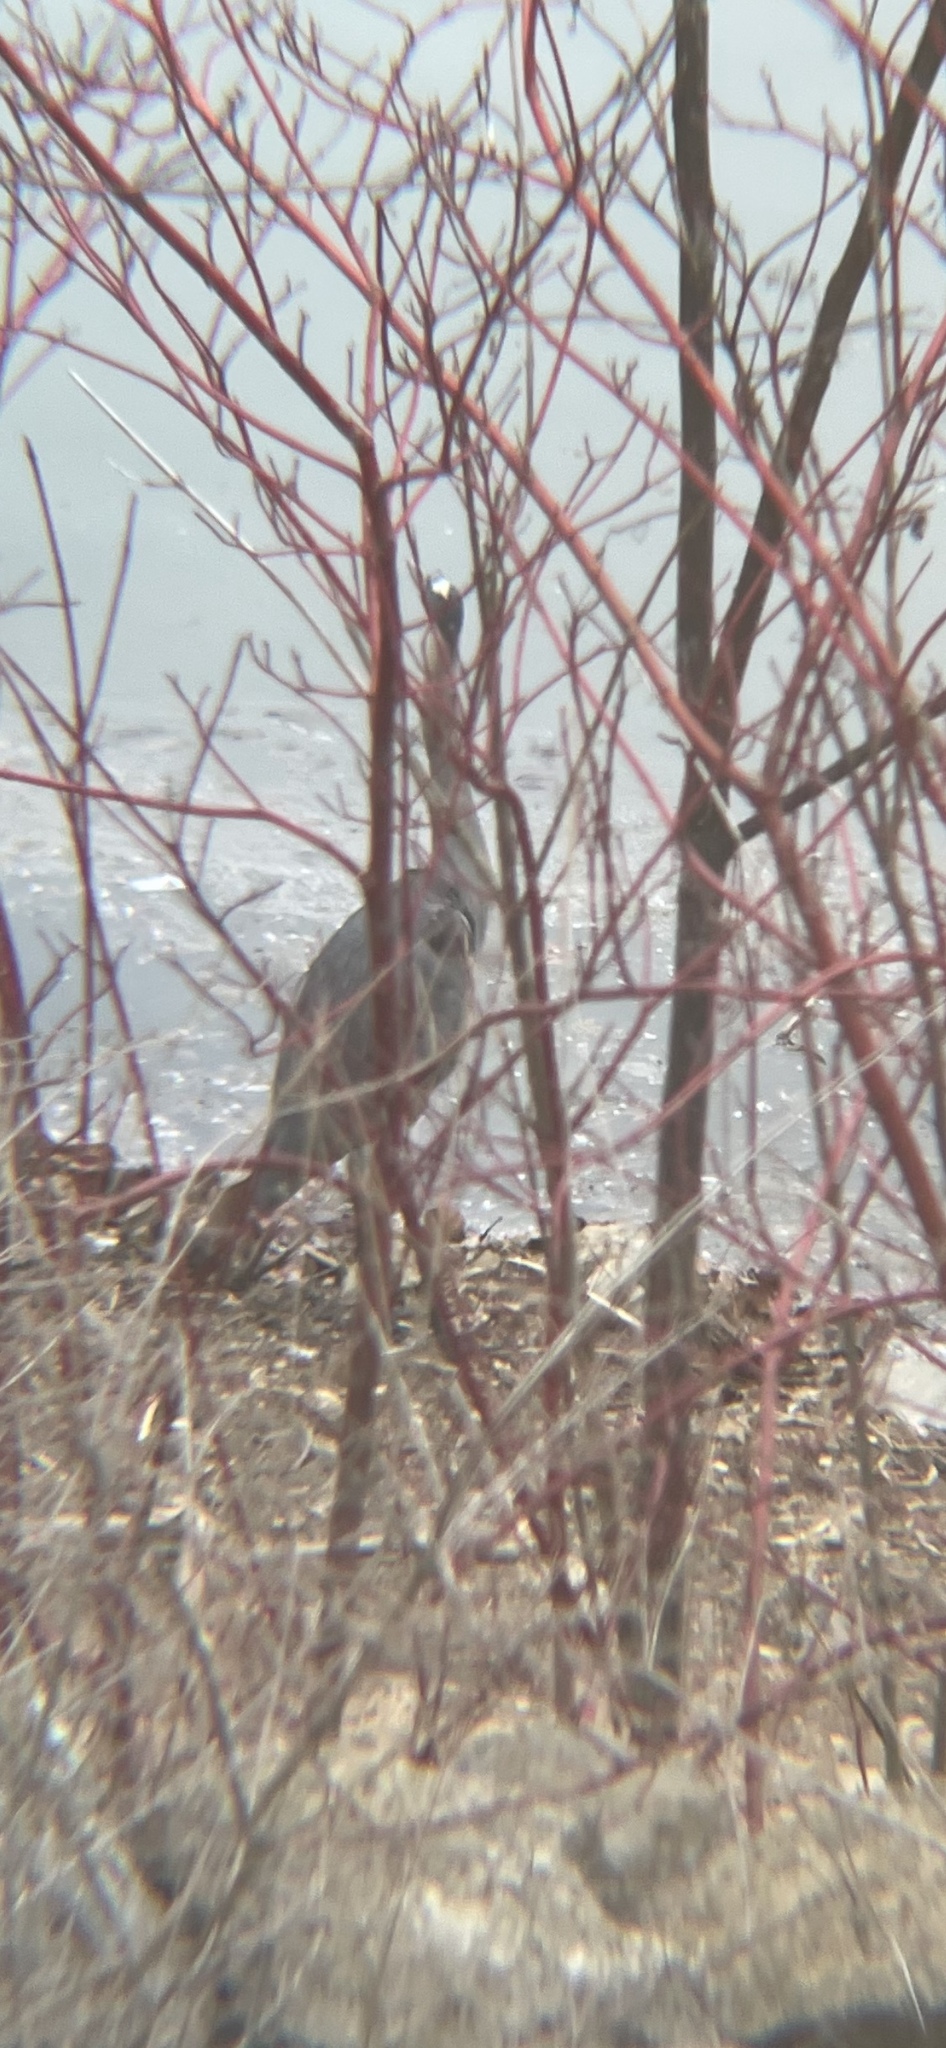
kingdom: Animalia
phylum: Chordata
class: Aves
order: Pelecaniformes
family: Ardeidae
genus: Ardea
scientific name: Ardea herodias
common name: Great blue heron
